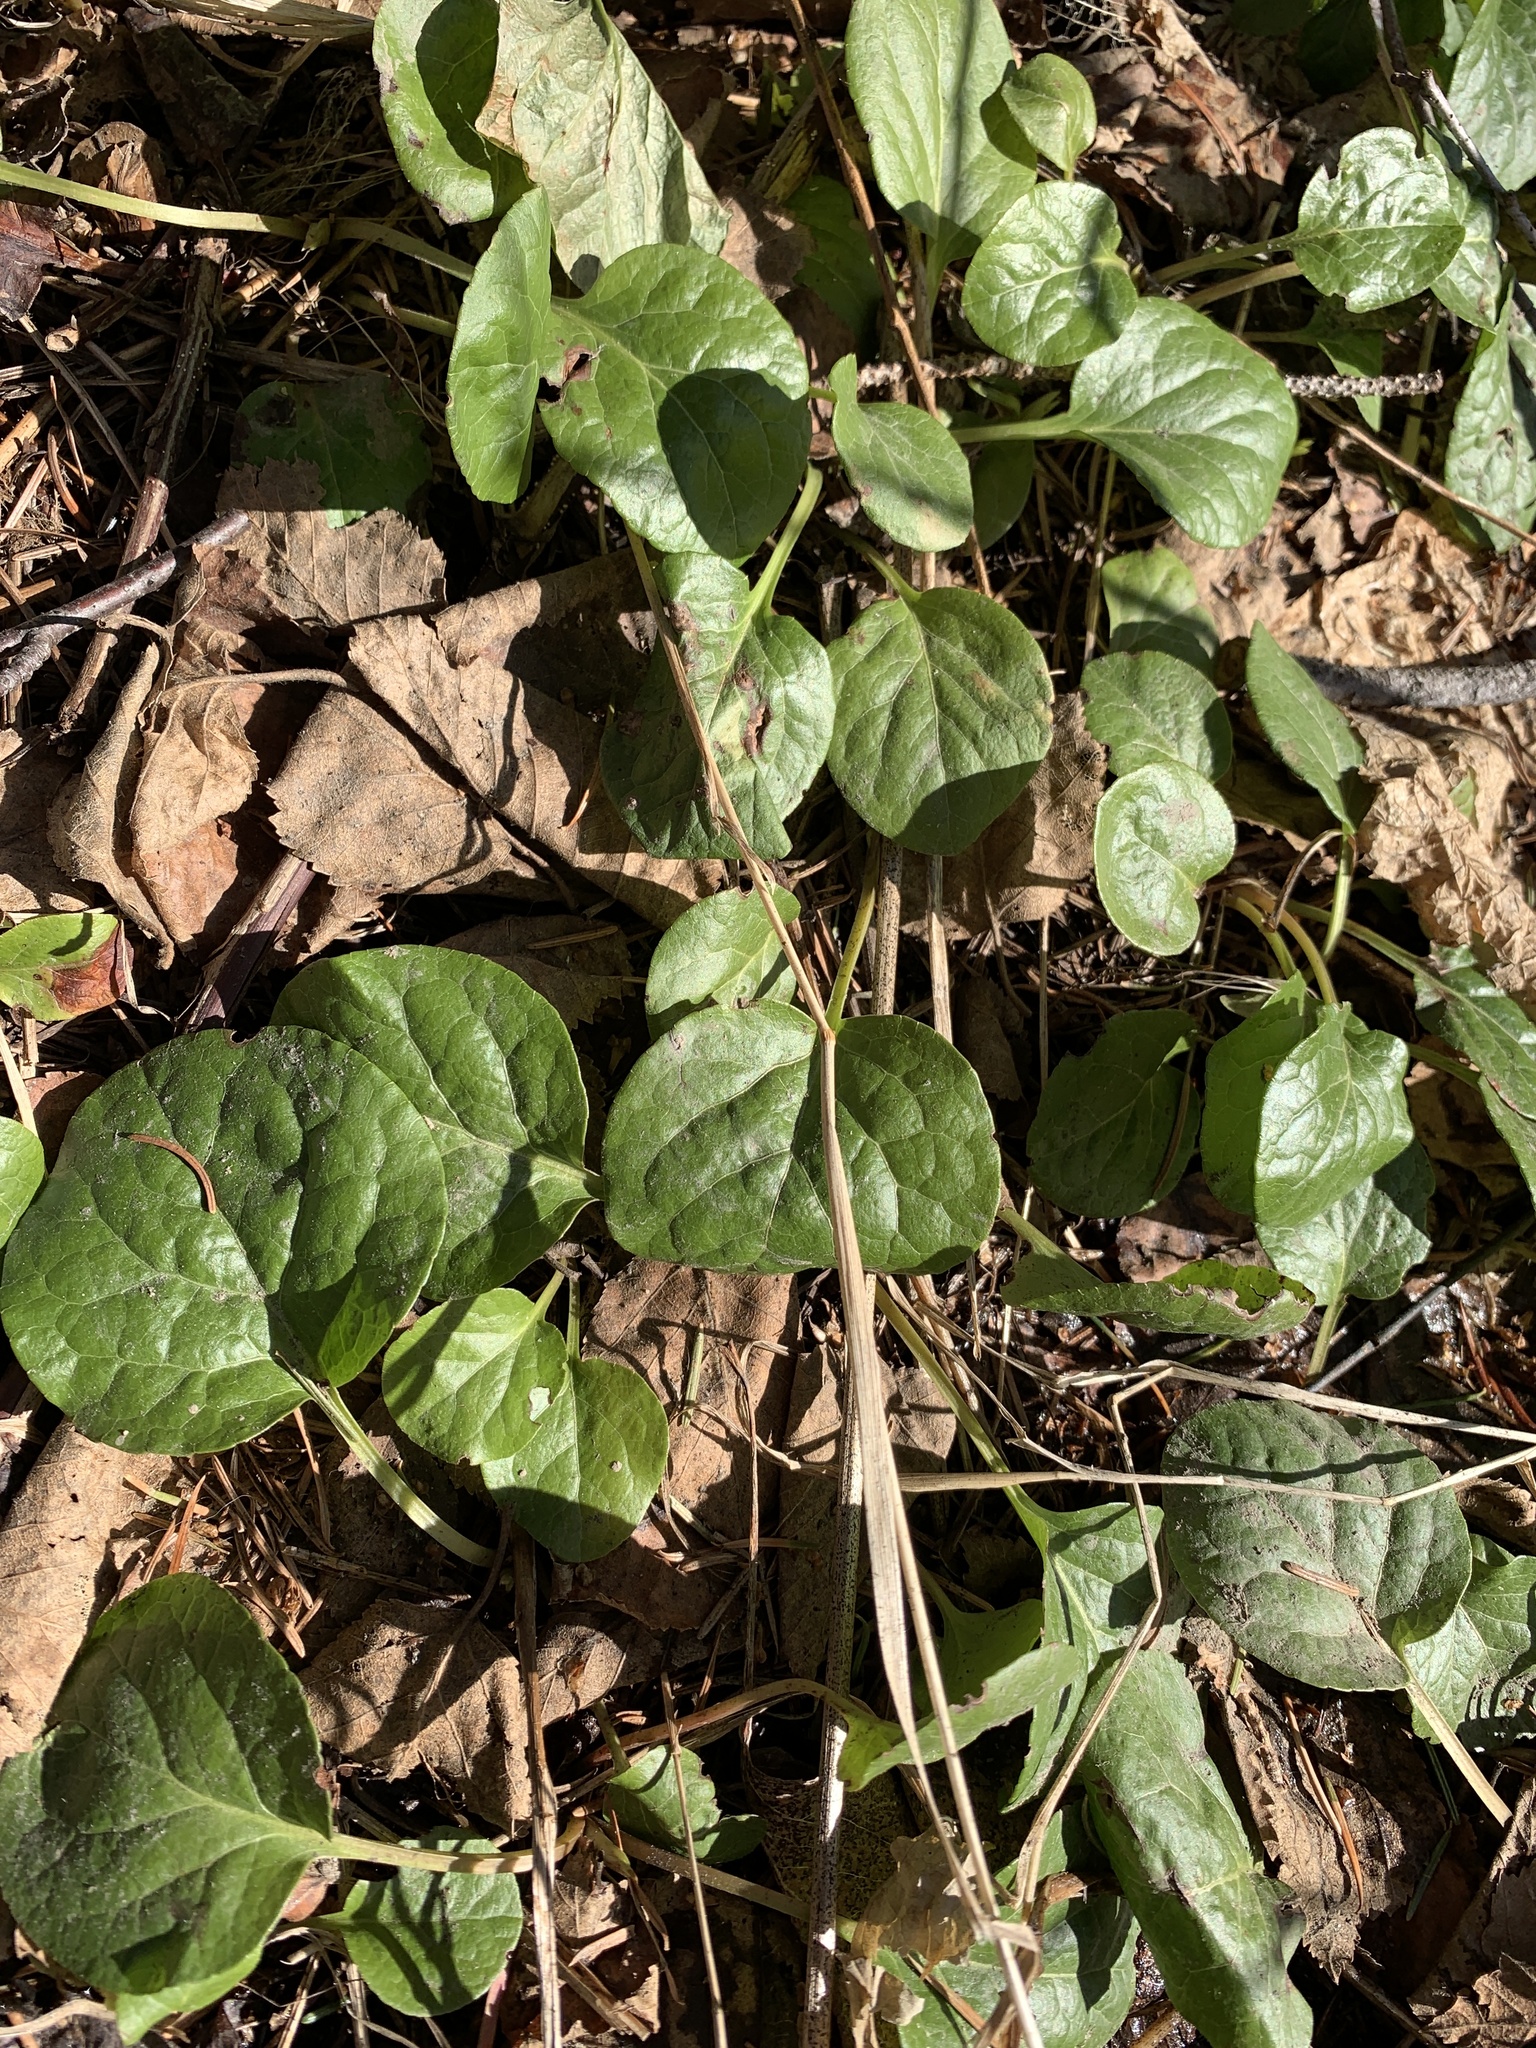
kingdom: Plantae
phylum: Tracheophyta
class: Magnoliopsida
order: Ericales
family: Ericaceae
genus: Pyrola
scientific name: Pyrola asarifolia
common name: Bog wintergreen
